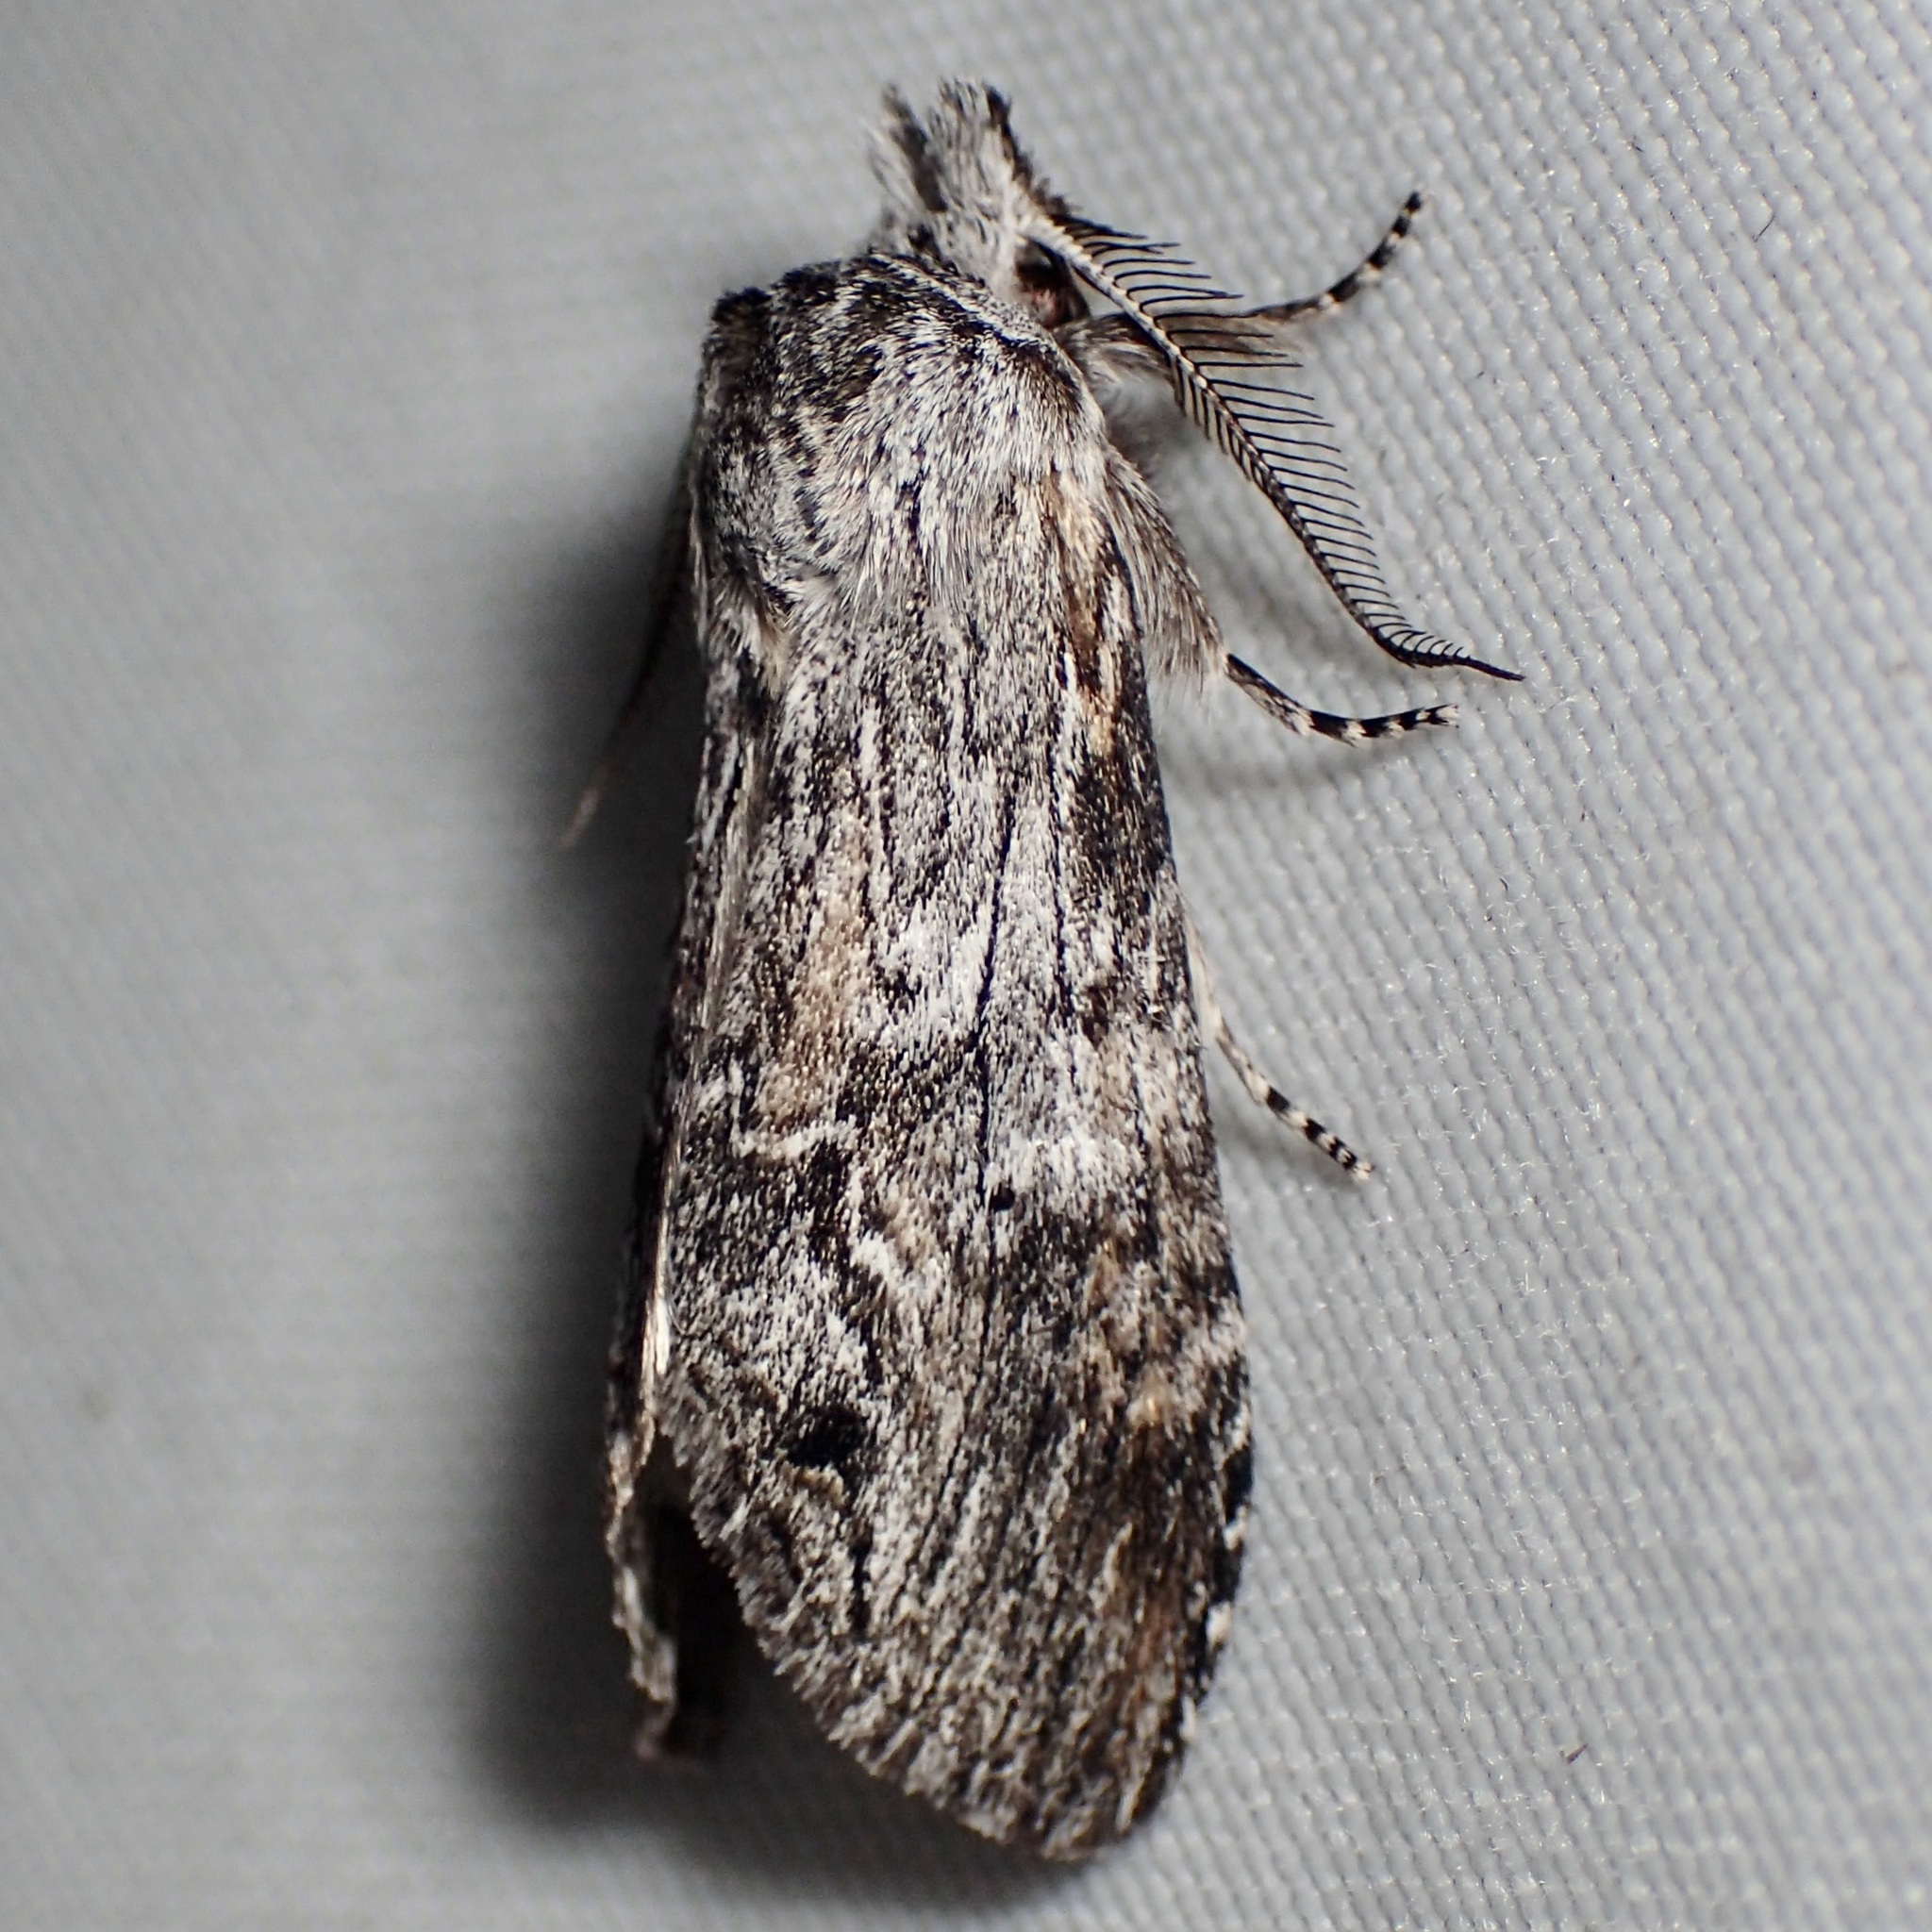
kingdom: Animalia
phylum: Arthropoda
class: Insecta
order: Lepidoptera
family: Notodontidae
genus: Notela
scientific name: Notela jaliscana
